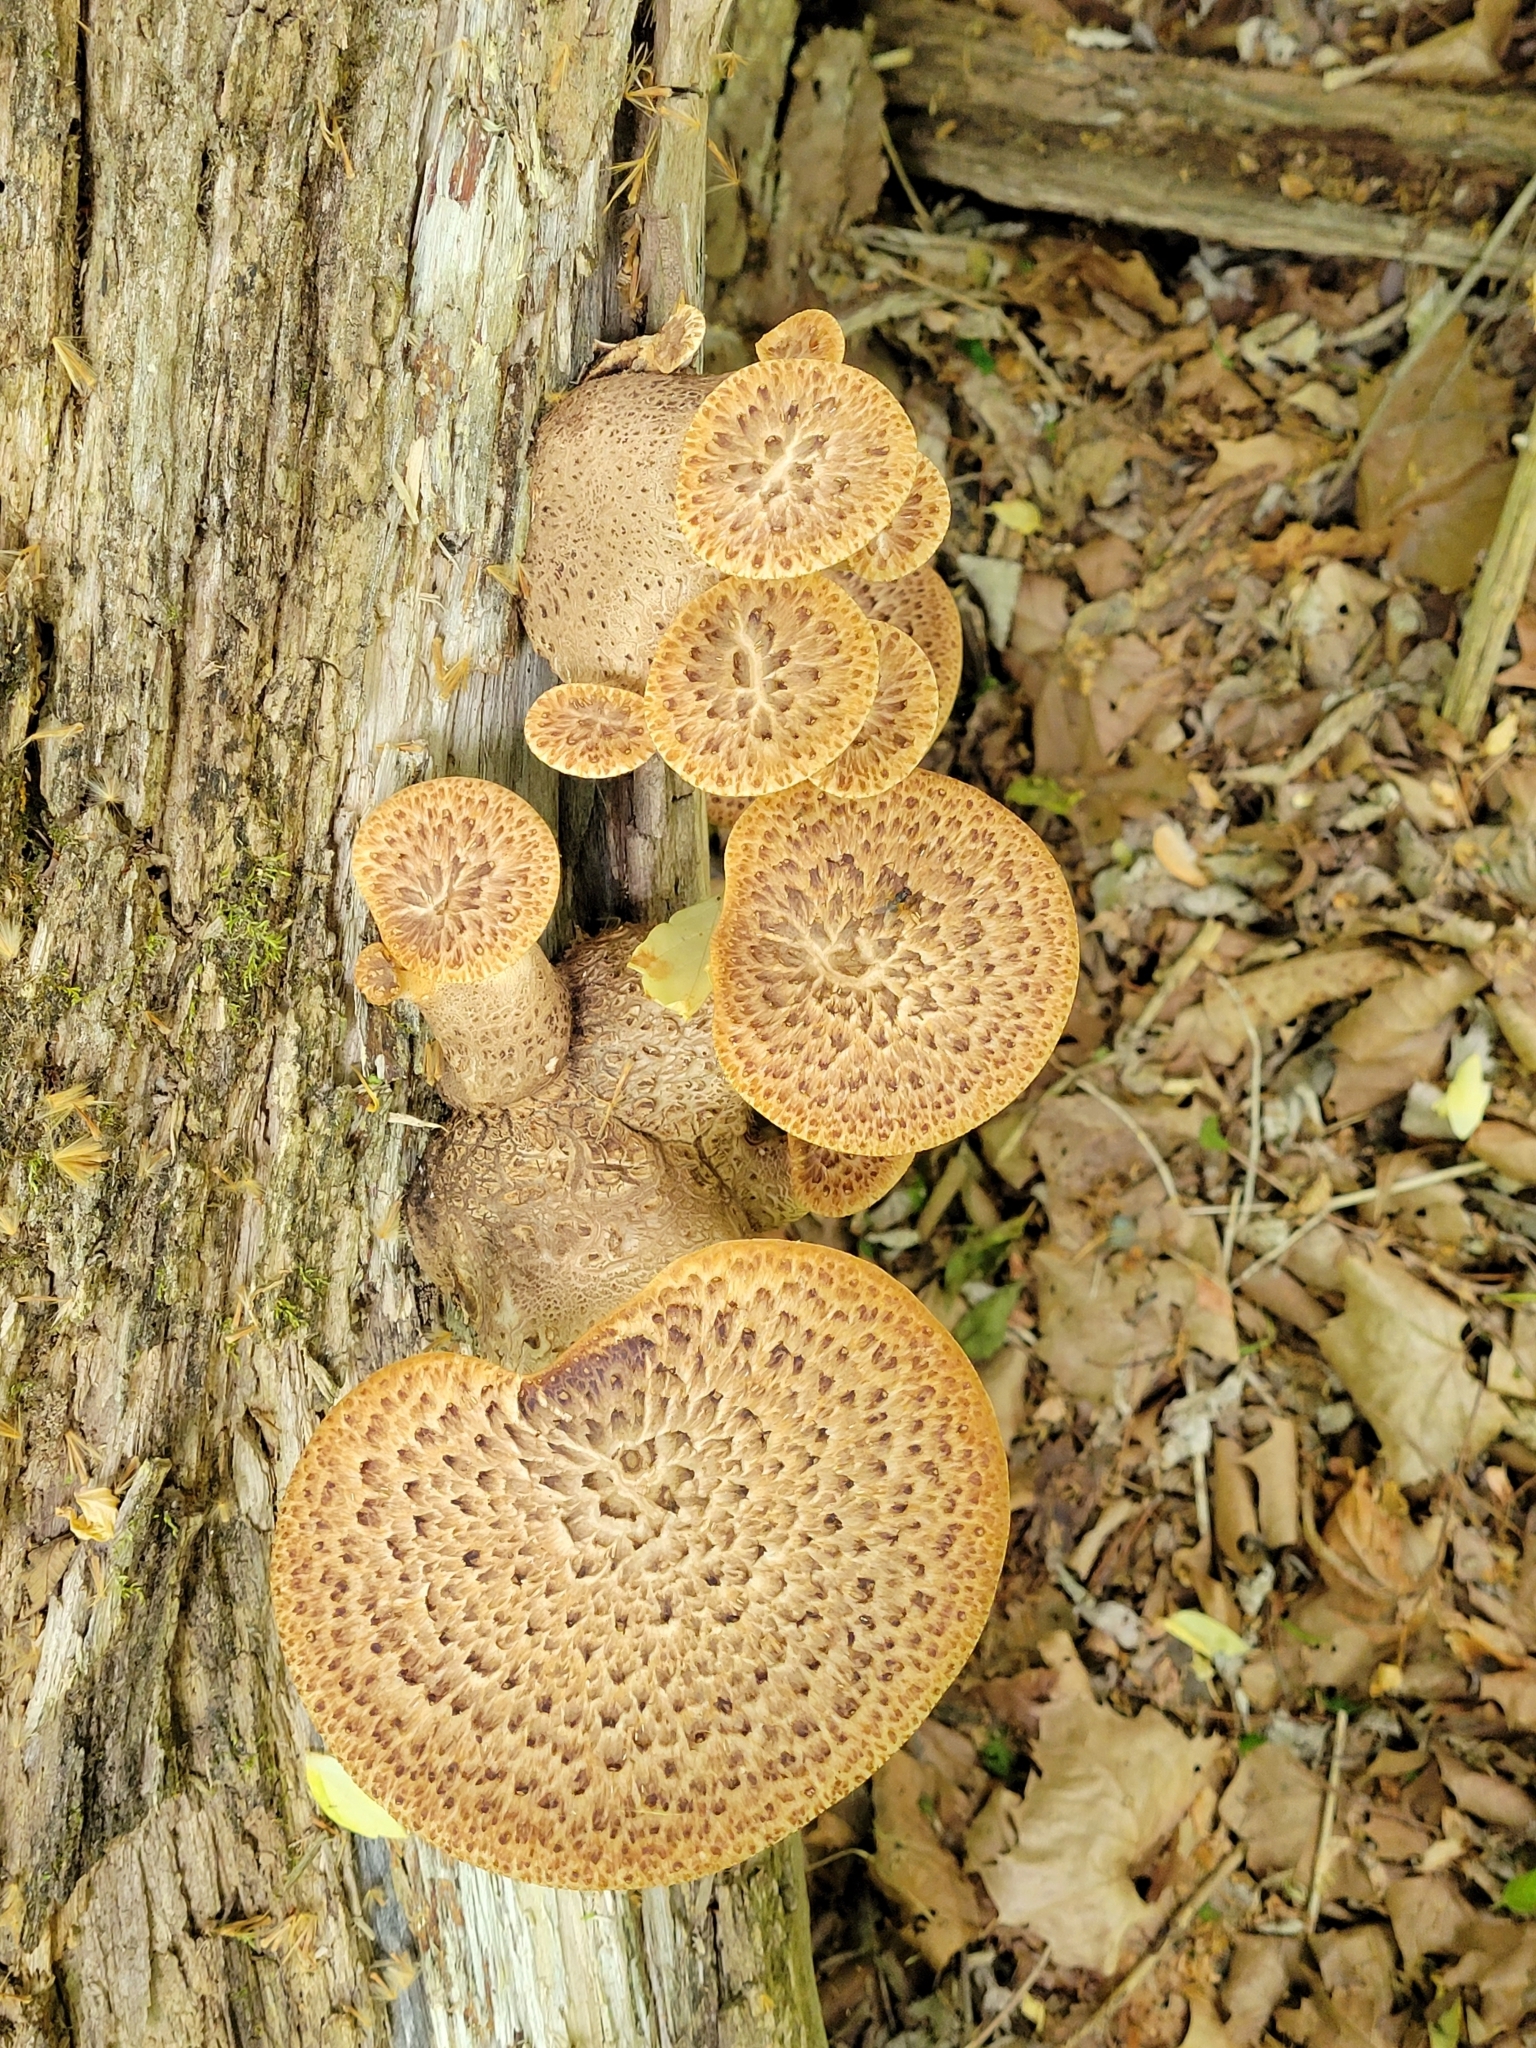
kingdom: Fungi
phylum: Basidiomycota
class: Agaricomycetes
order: Polyporales
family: Polyporaceae
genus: Cerioporus
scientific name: Cerioporus squamosus
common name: Dryad's saddle
